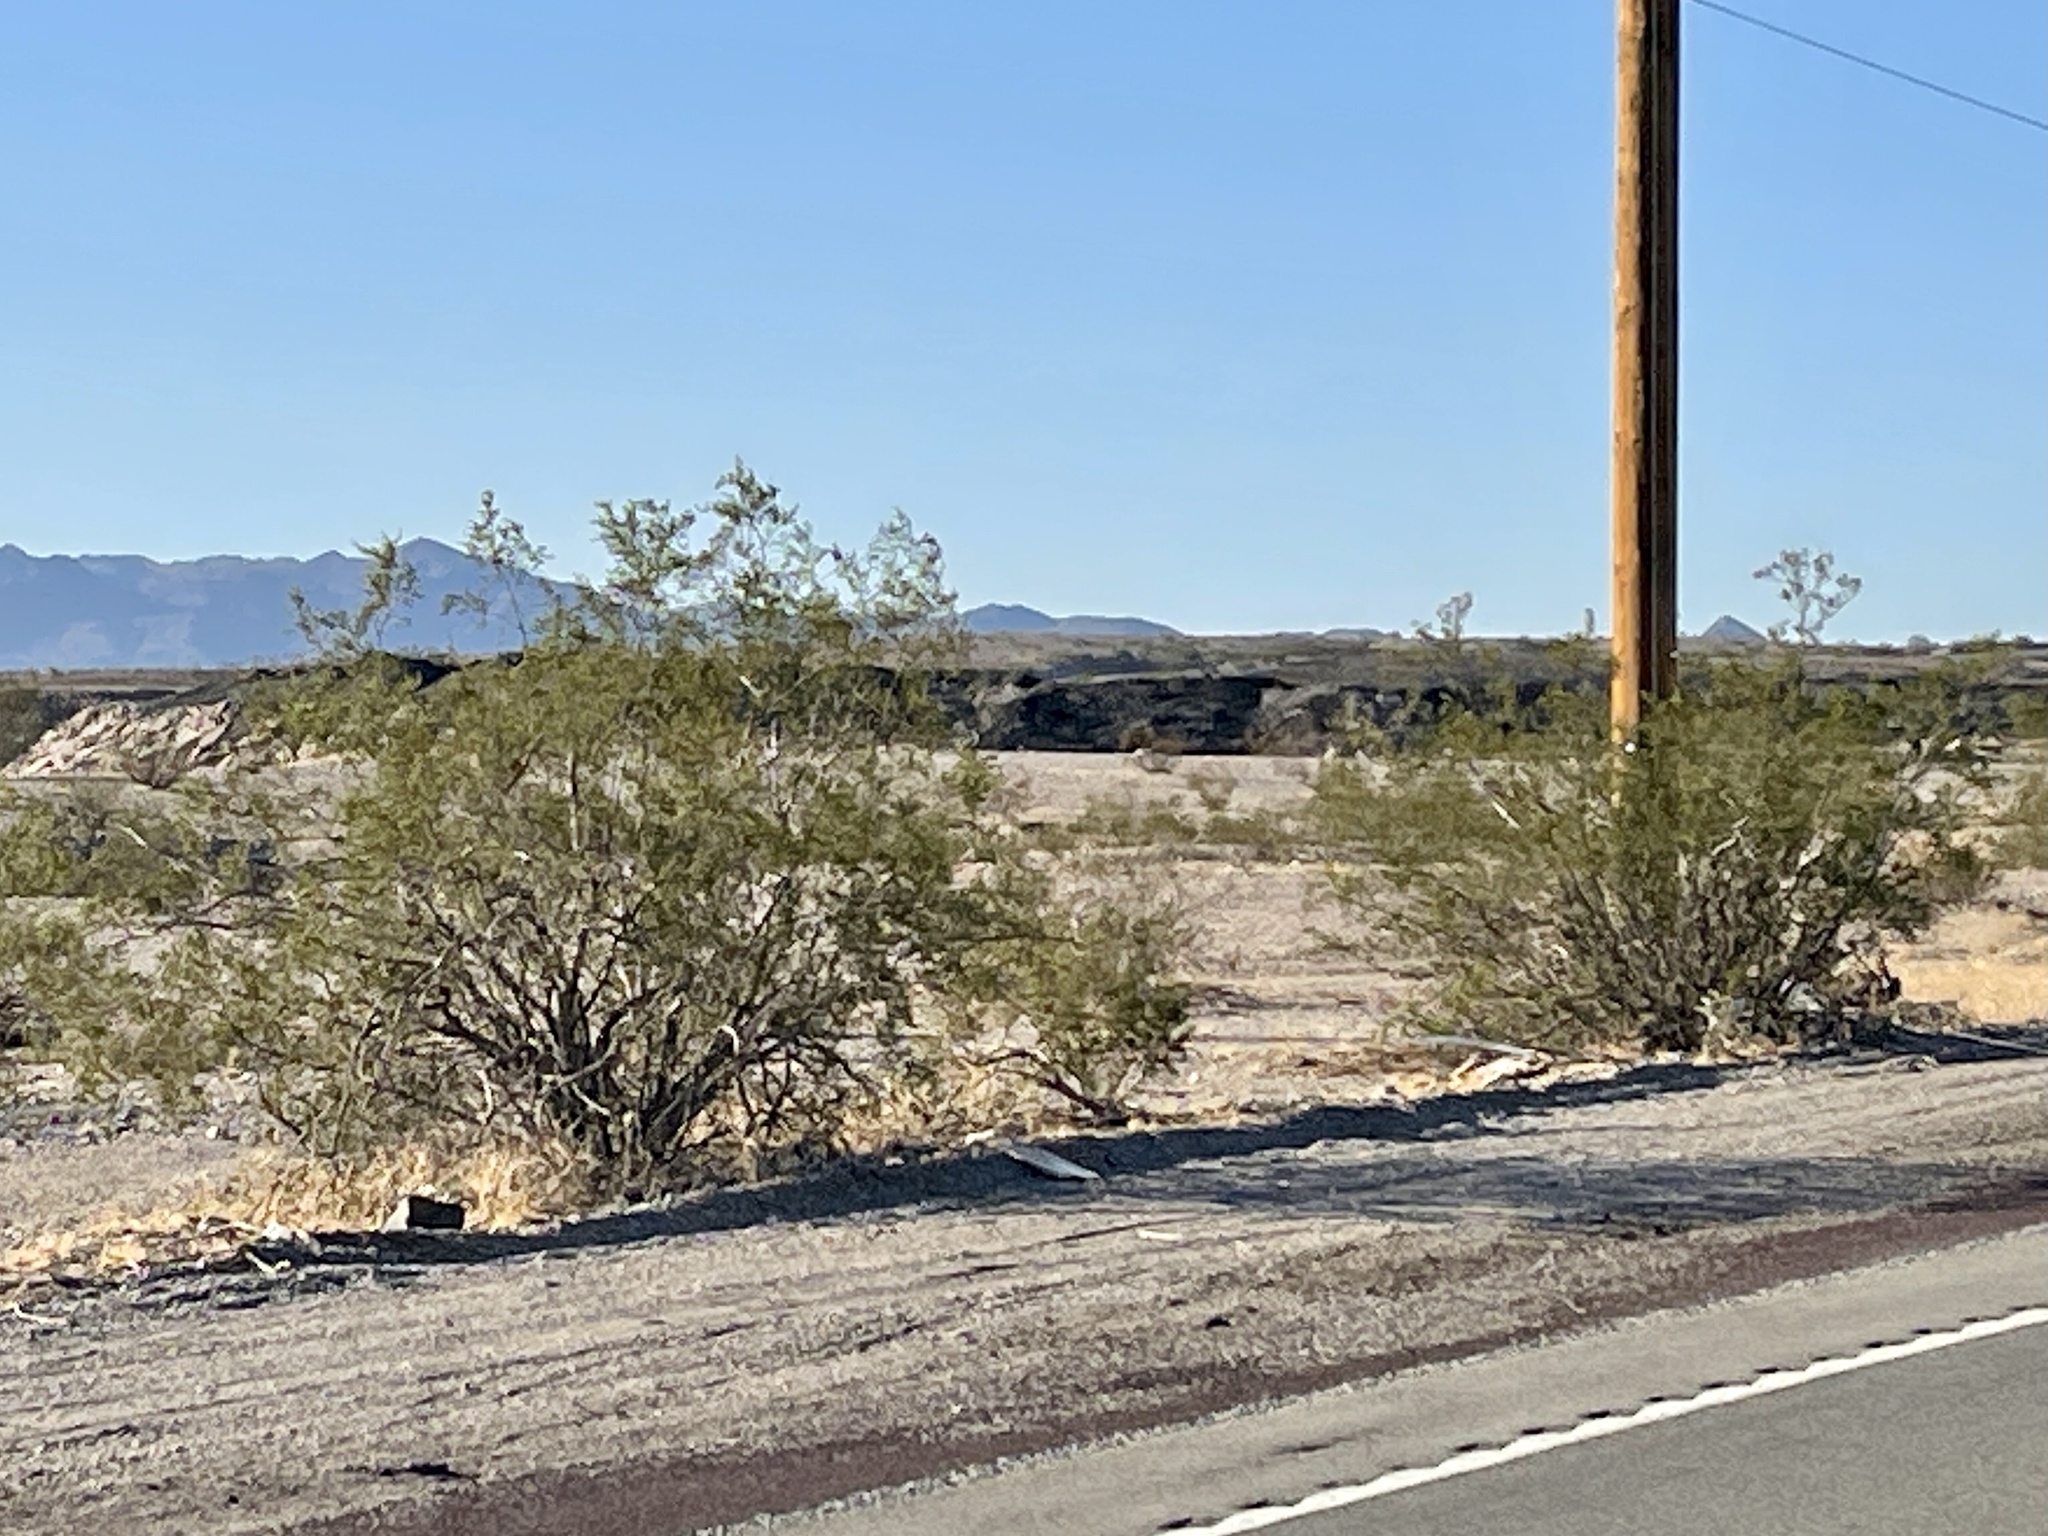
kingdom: Plantae
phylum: Tracheophyta
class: Magnoliopsida
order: Zygophyllales
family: Zygophyllaceae
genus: Larrea
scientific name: Larrea tridentata
